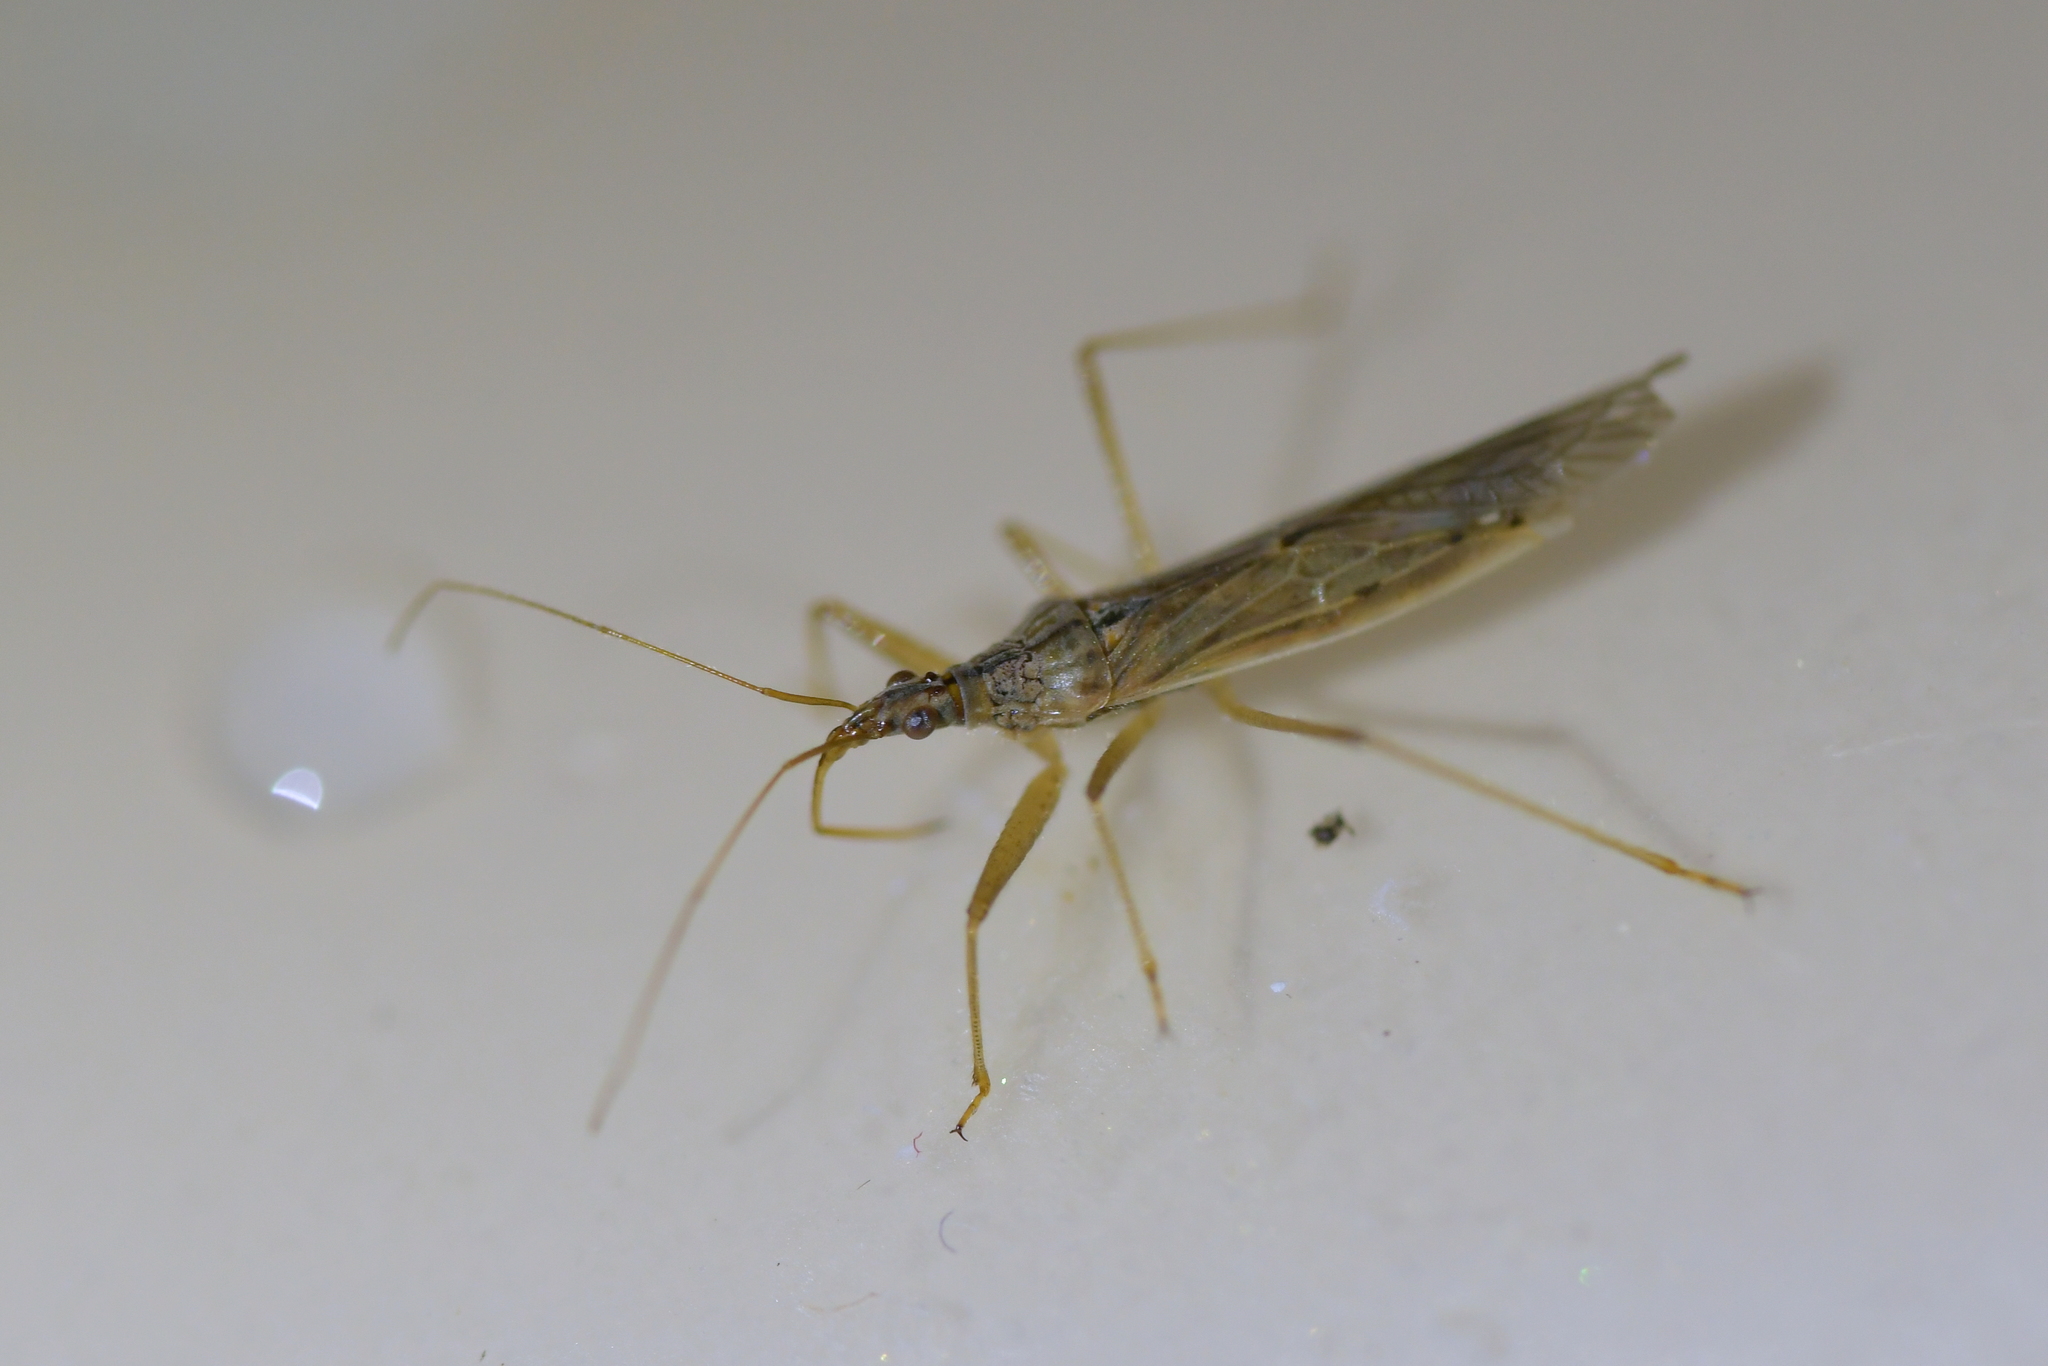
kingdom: Animalia
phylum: Arthropoda
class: Insecta
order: Hemiptera
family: Nabidae
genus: Nabis
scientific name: Nabis kinbergii
